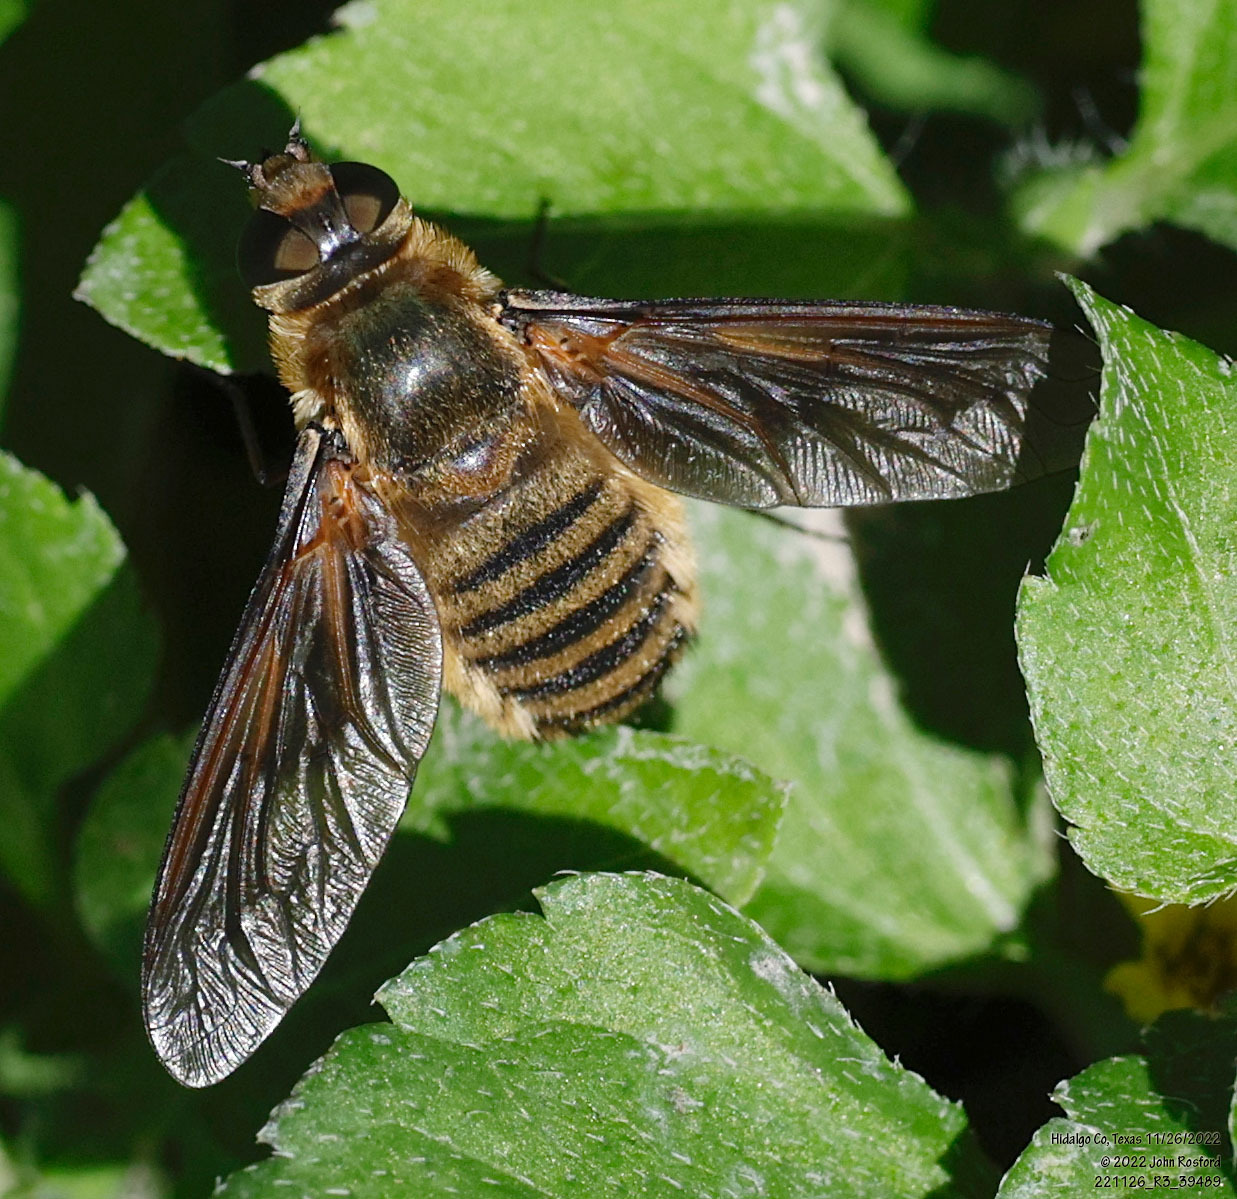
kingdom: Animalia
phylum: Arthropoda
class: Insecta
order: Diptera
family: Bombyliidae
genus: Poecilanthrax
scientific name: Poecilanthrax lucifer
